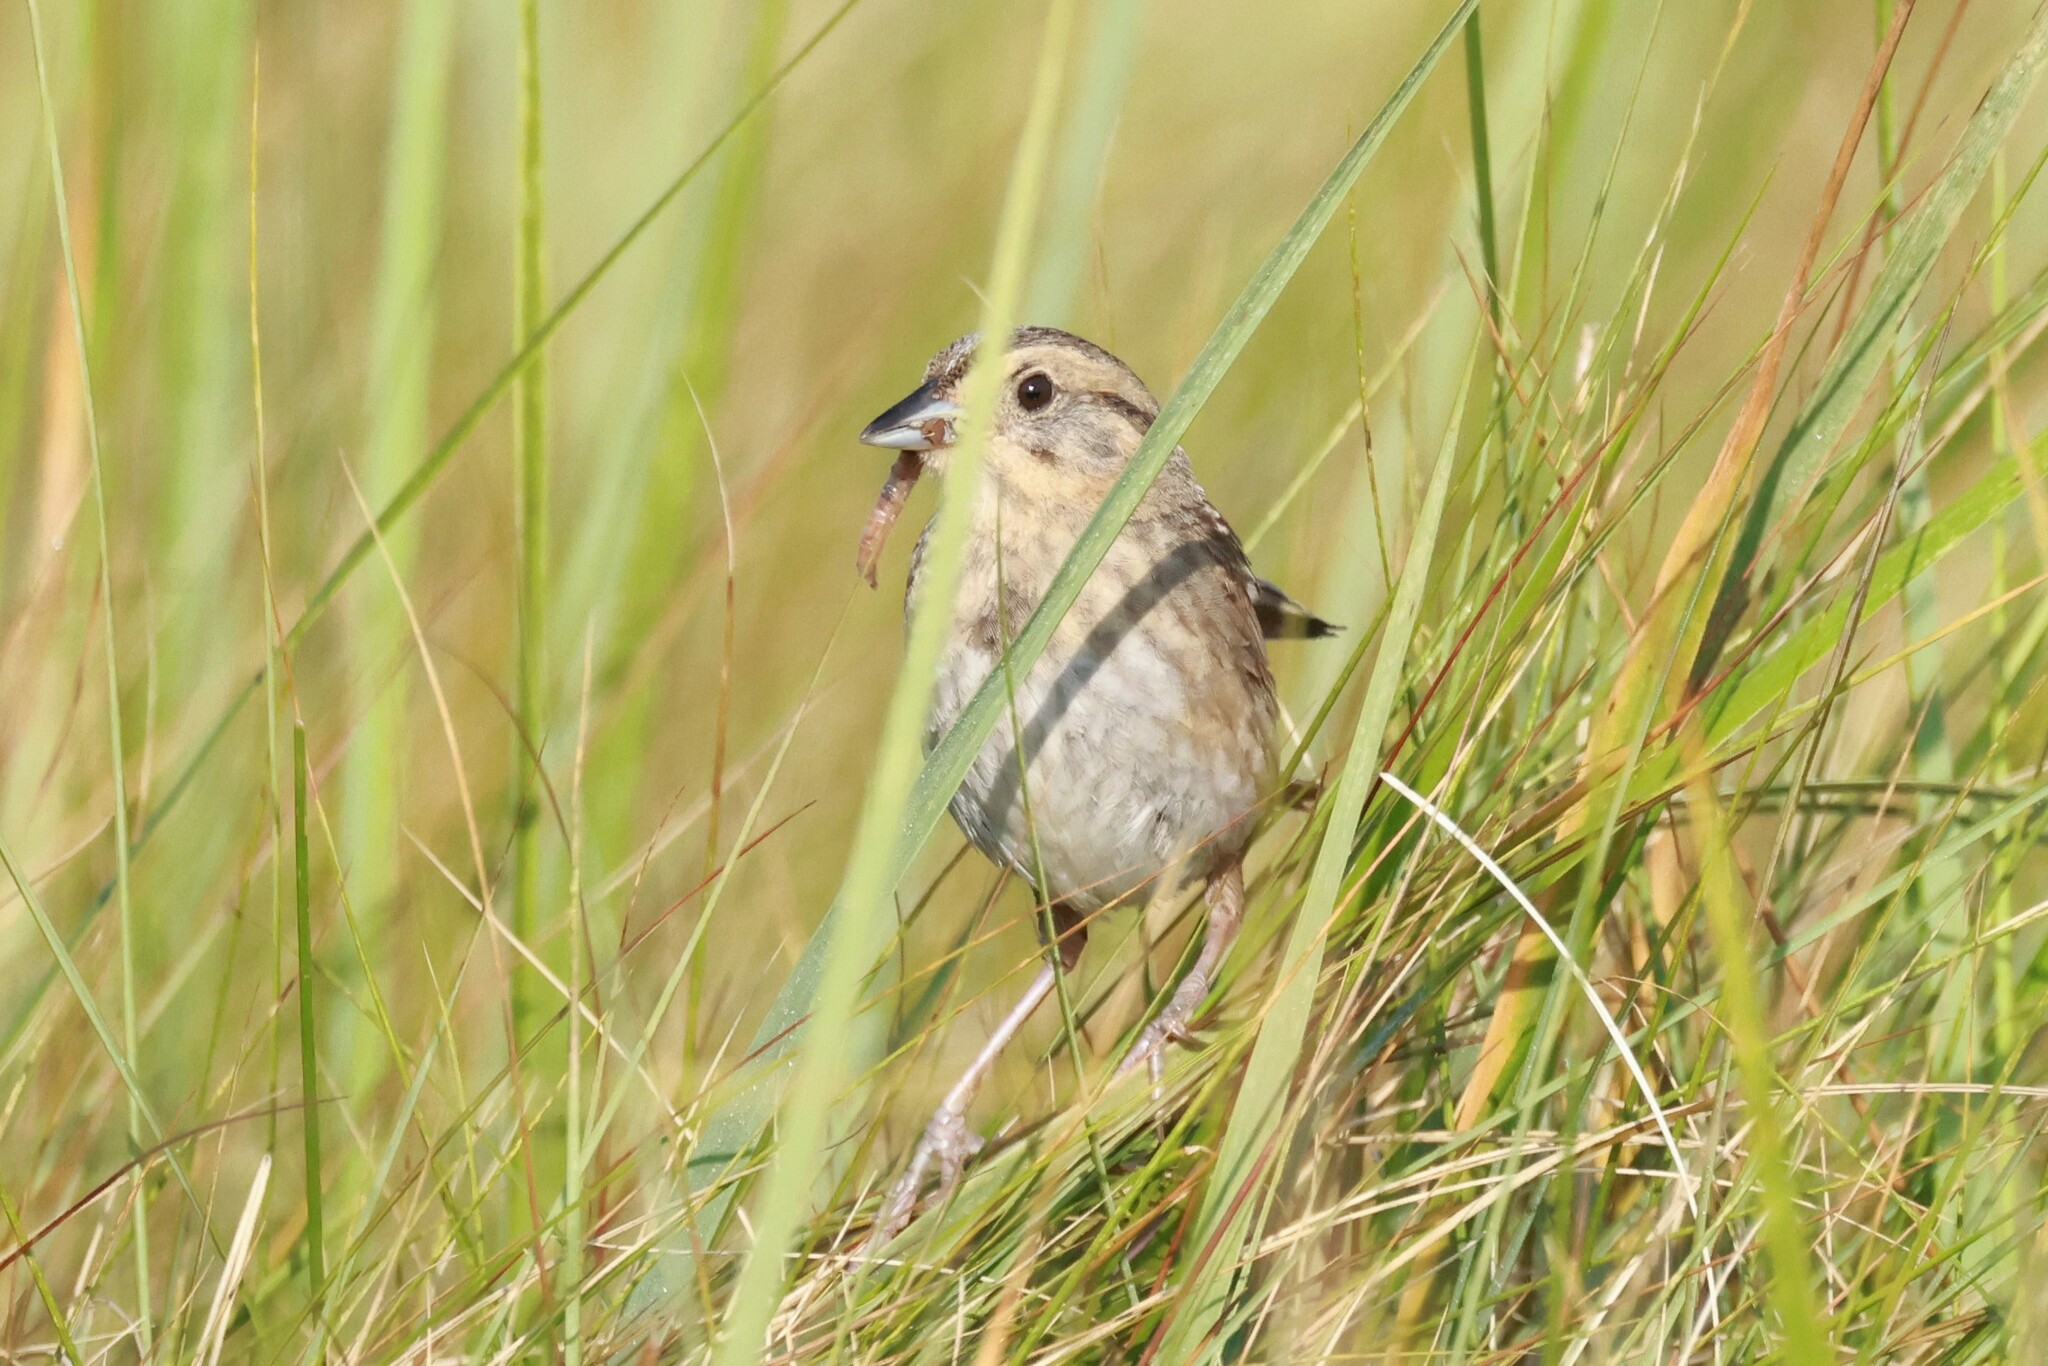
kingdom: Animalia
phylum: Chordata
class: Aves
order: Passeriformes
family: Passerellidae
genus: Ammospiza
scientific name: Ammospiza nelsoni
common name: Nelson's sparrow
